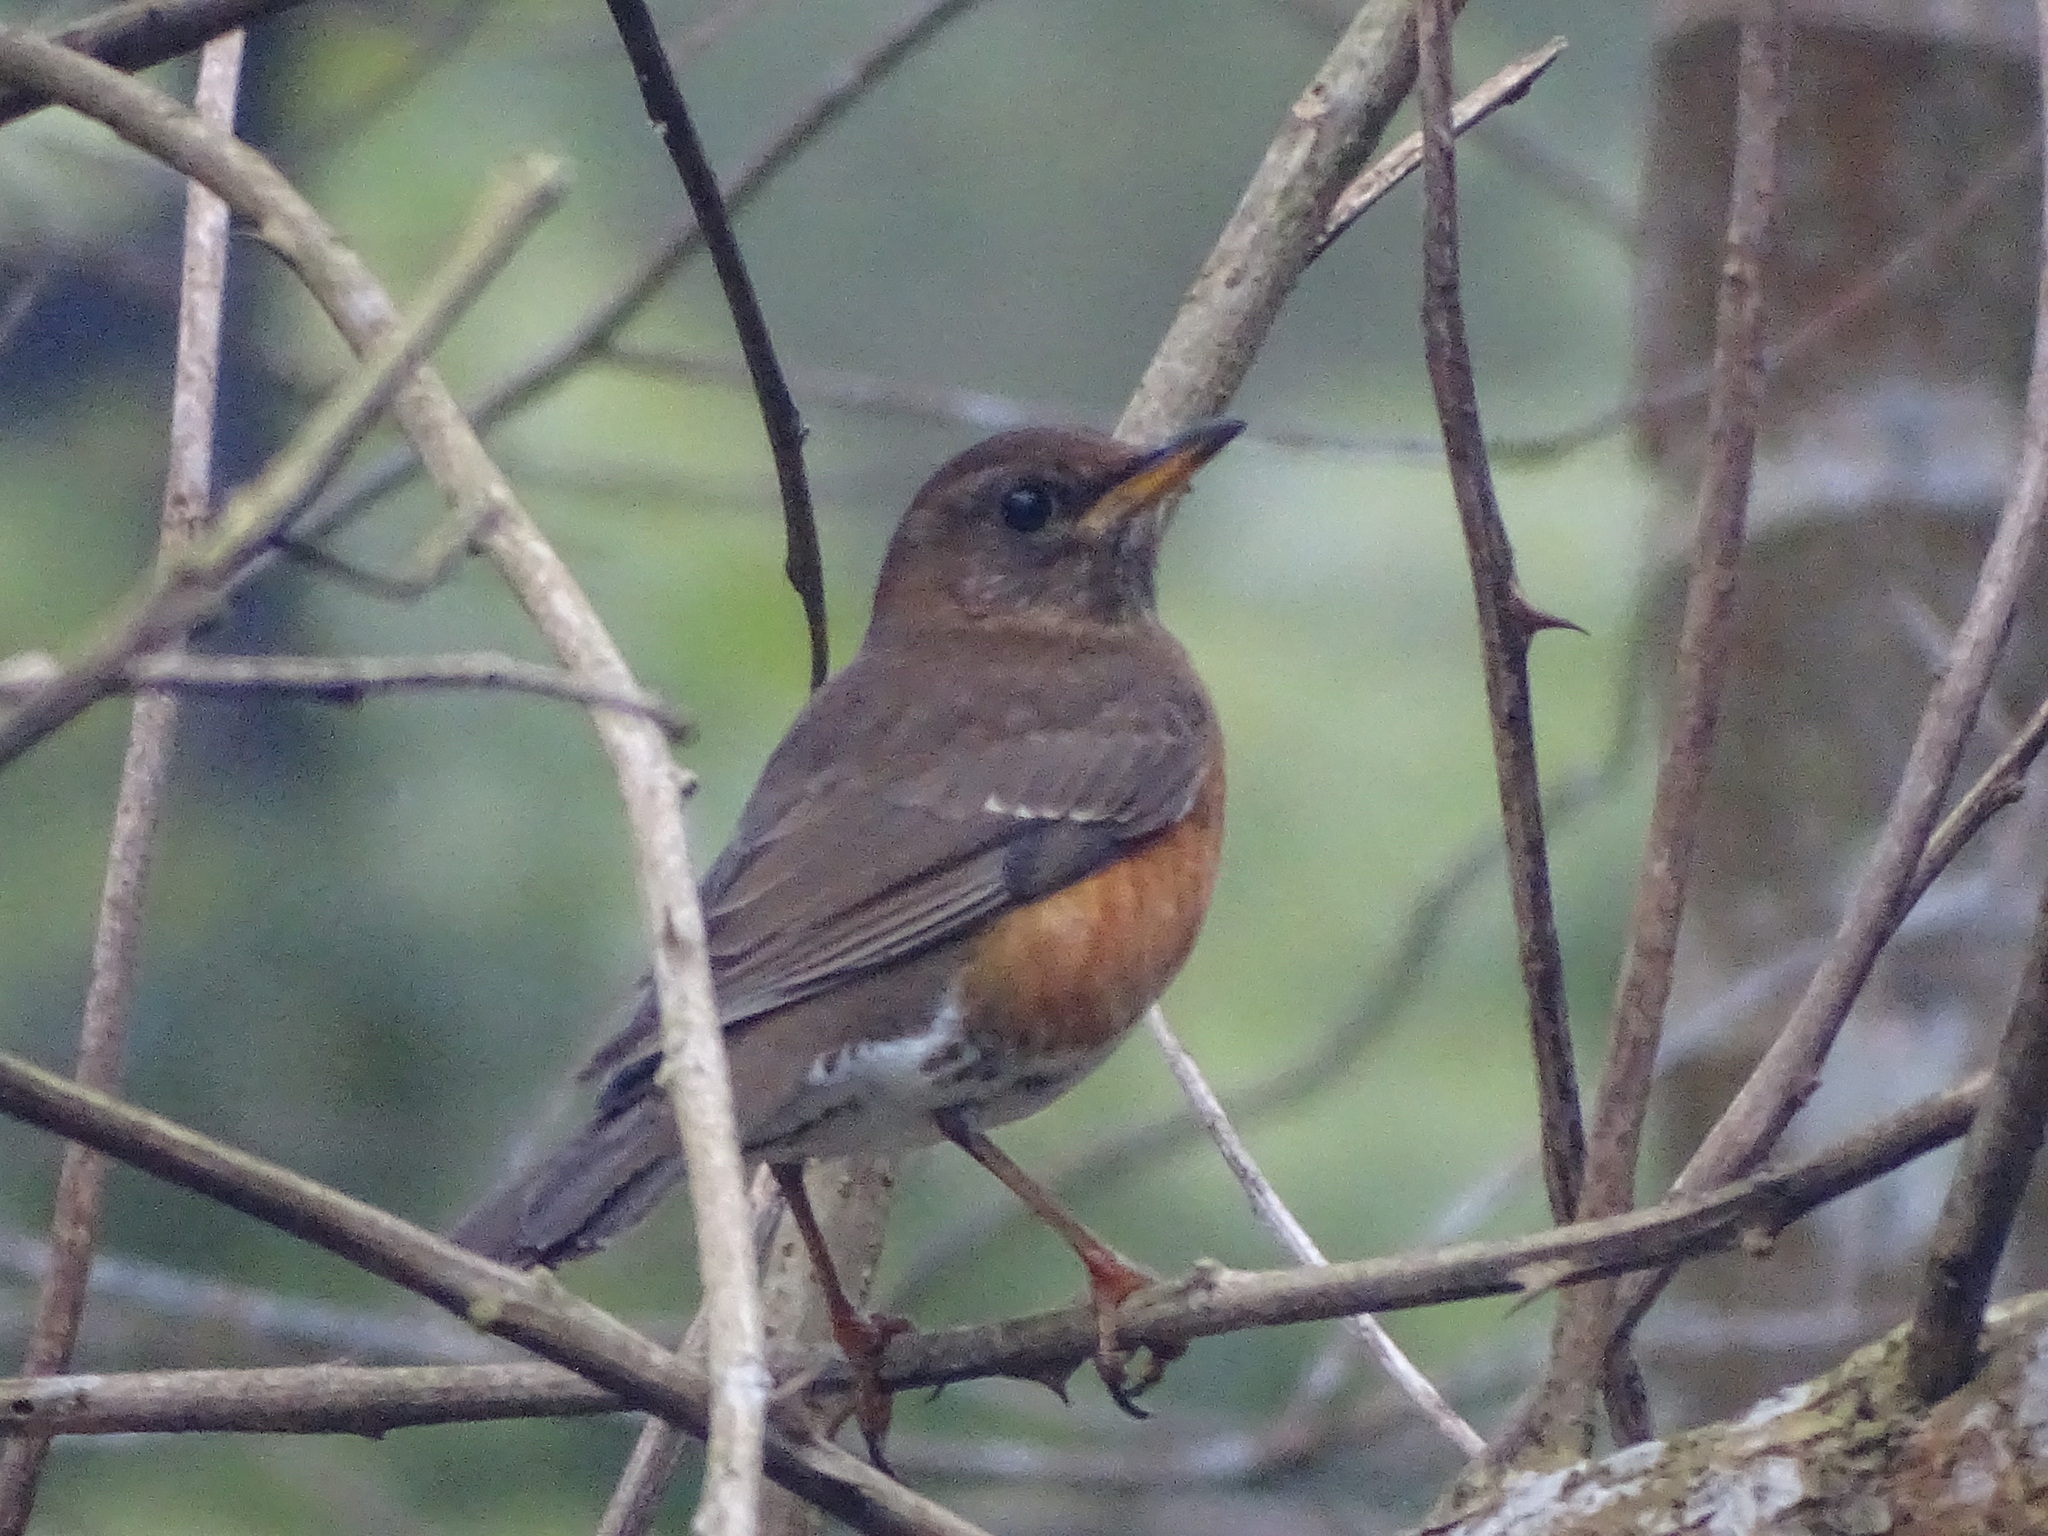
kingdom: Animalia
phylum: Chordata
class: Aves
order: Passeriformes
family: Turdidae
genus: Turdus
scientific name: Turdus chrysolaus
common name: Brown-headed thrush
